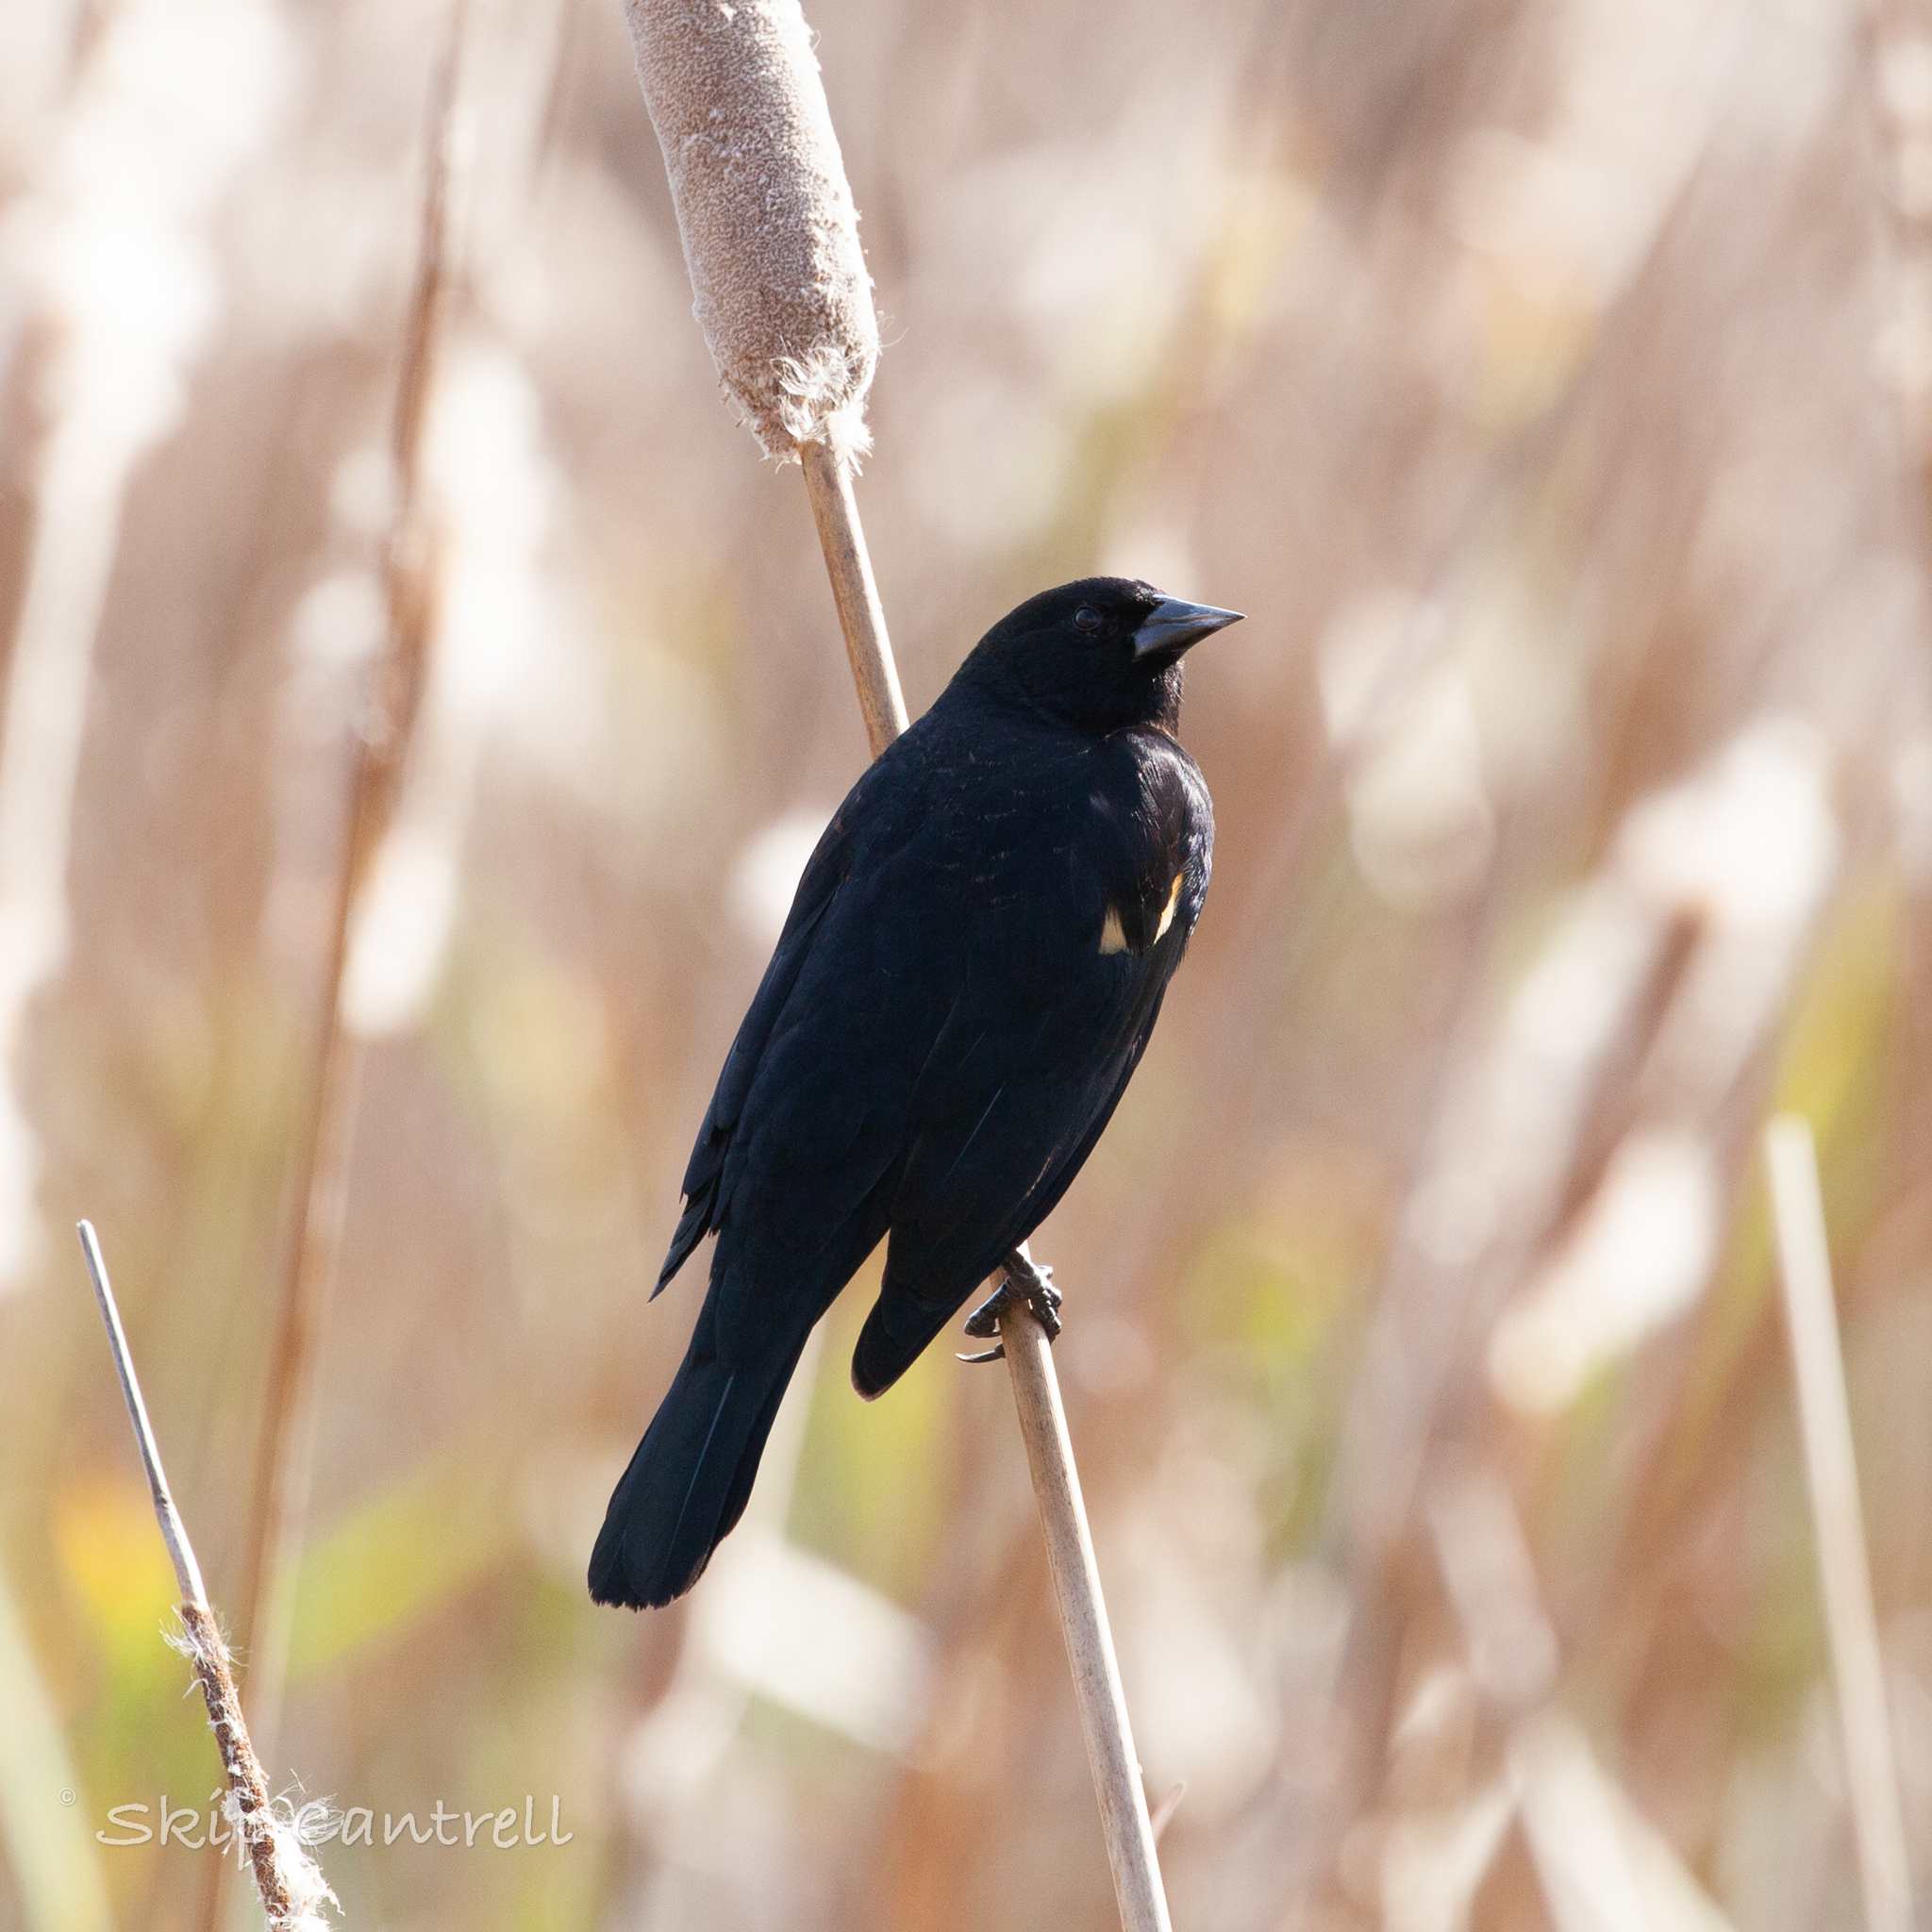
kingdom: Animalia
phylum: Chordata
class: Aves
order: Passeriformes
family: Icteridae
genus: Agelaius
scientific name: Agelaius phoeniceus
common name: Red-winged blackbird
